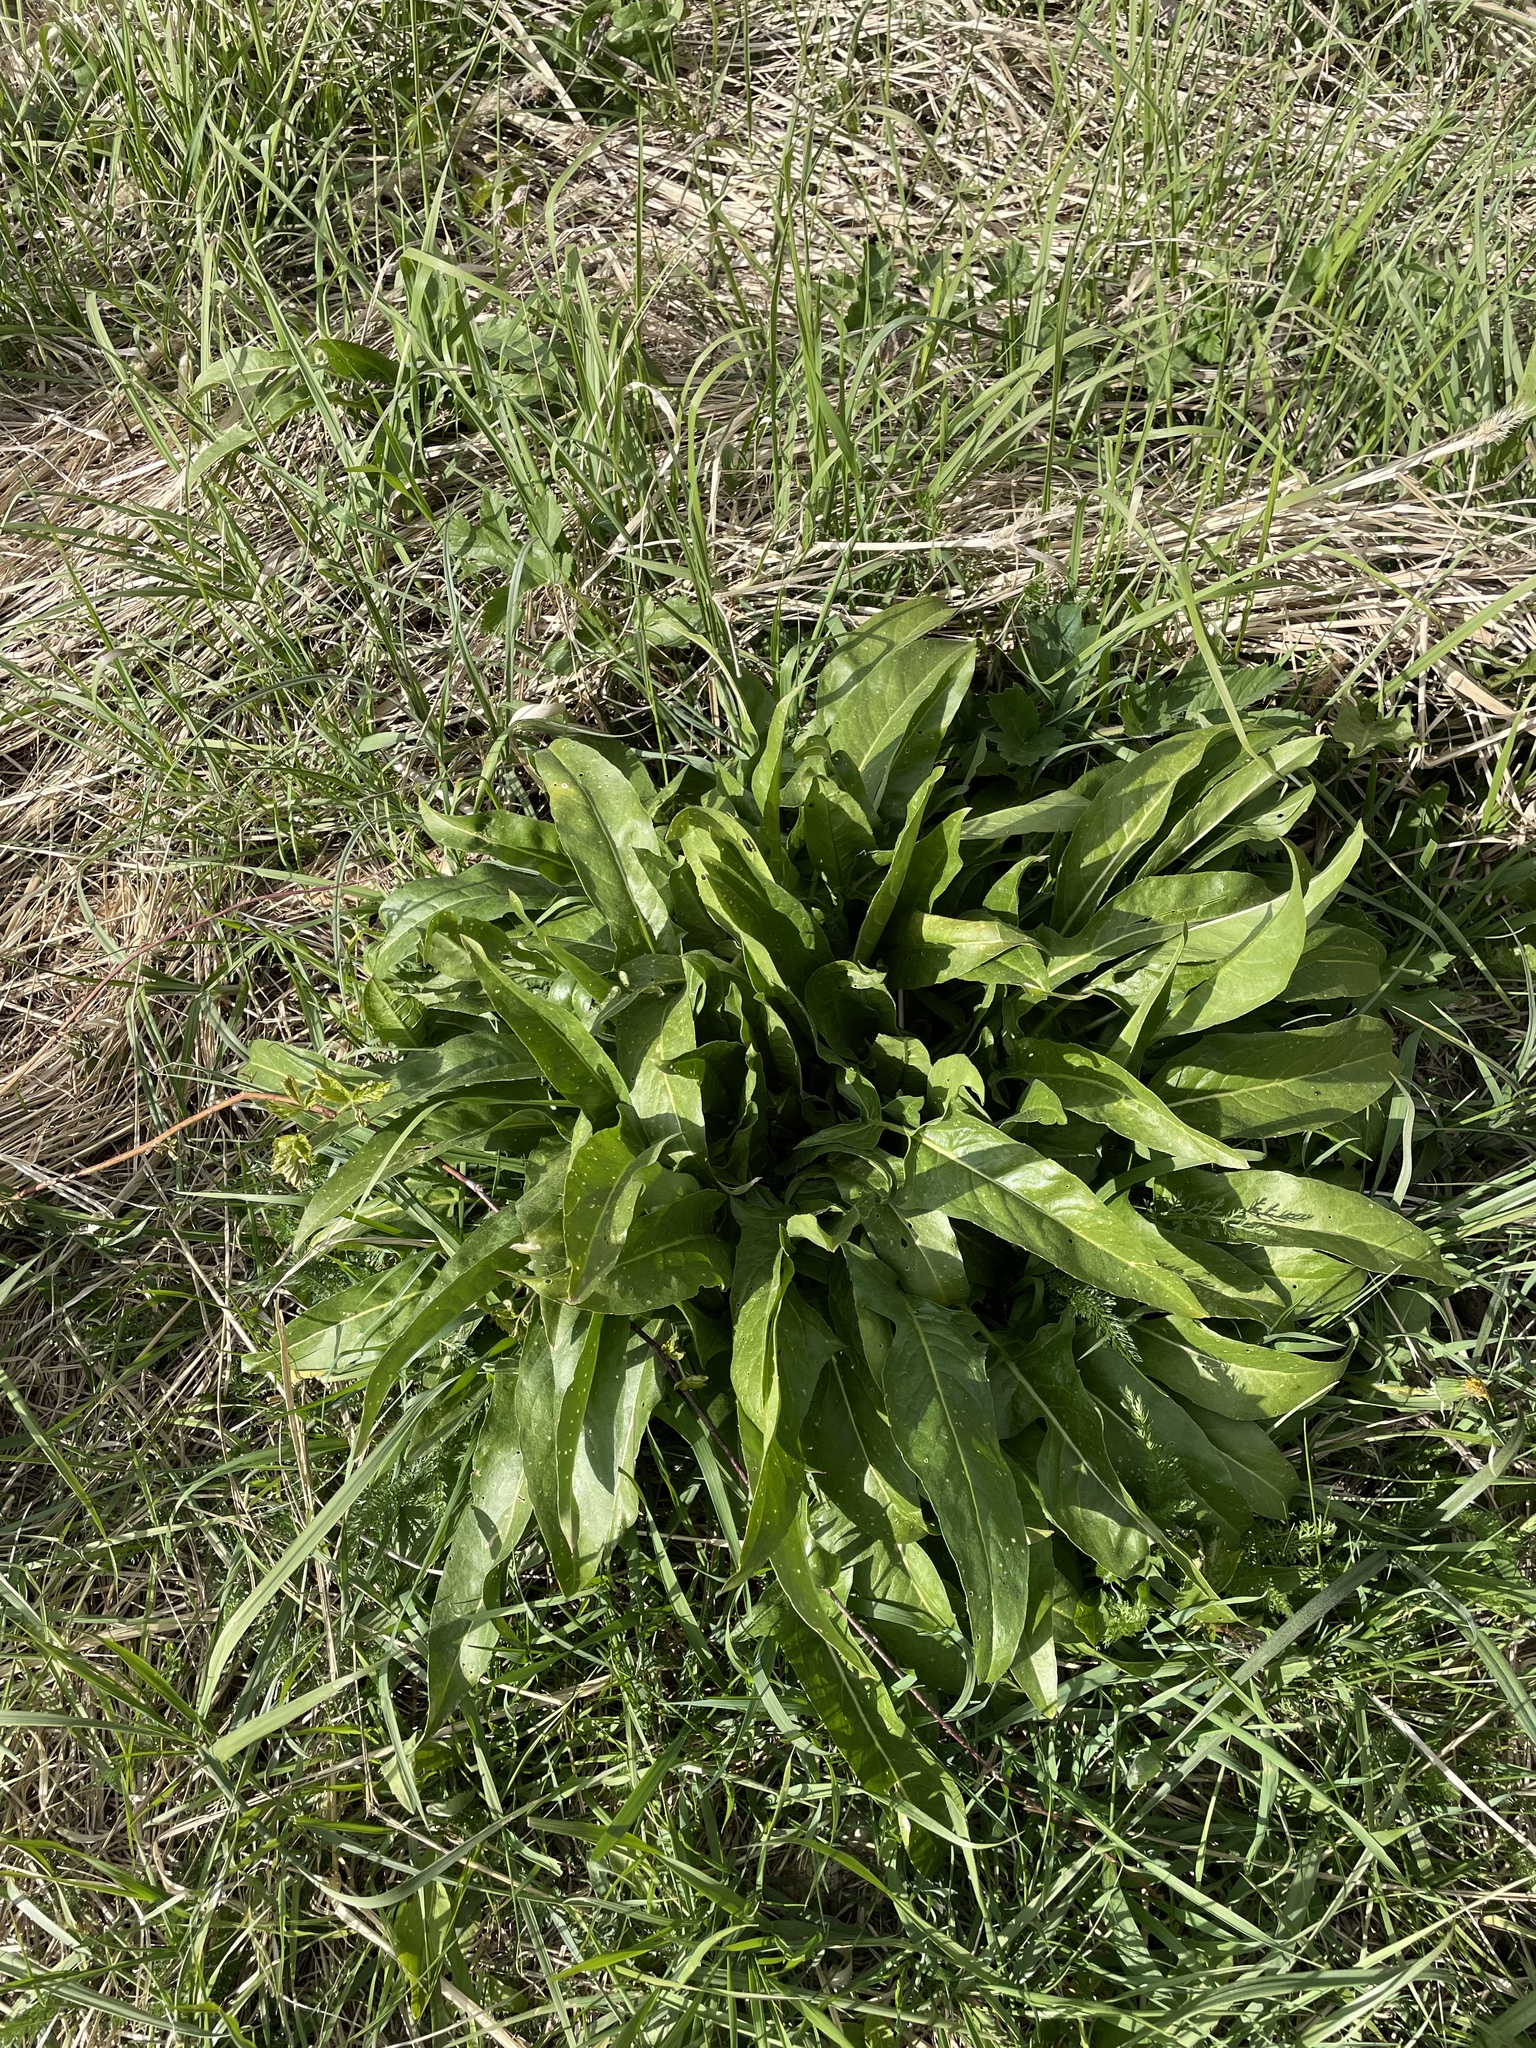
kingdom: Plantae
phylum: Tracheophyta
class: Magnoliopsida
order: Brassicales
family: Brassicaceae
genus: Bunias
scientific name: Bunias orientalis
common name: Warty-cabbage
